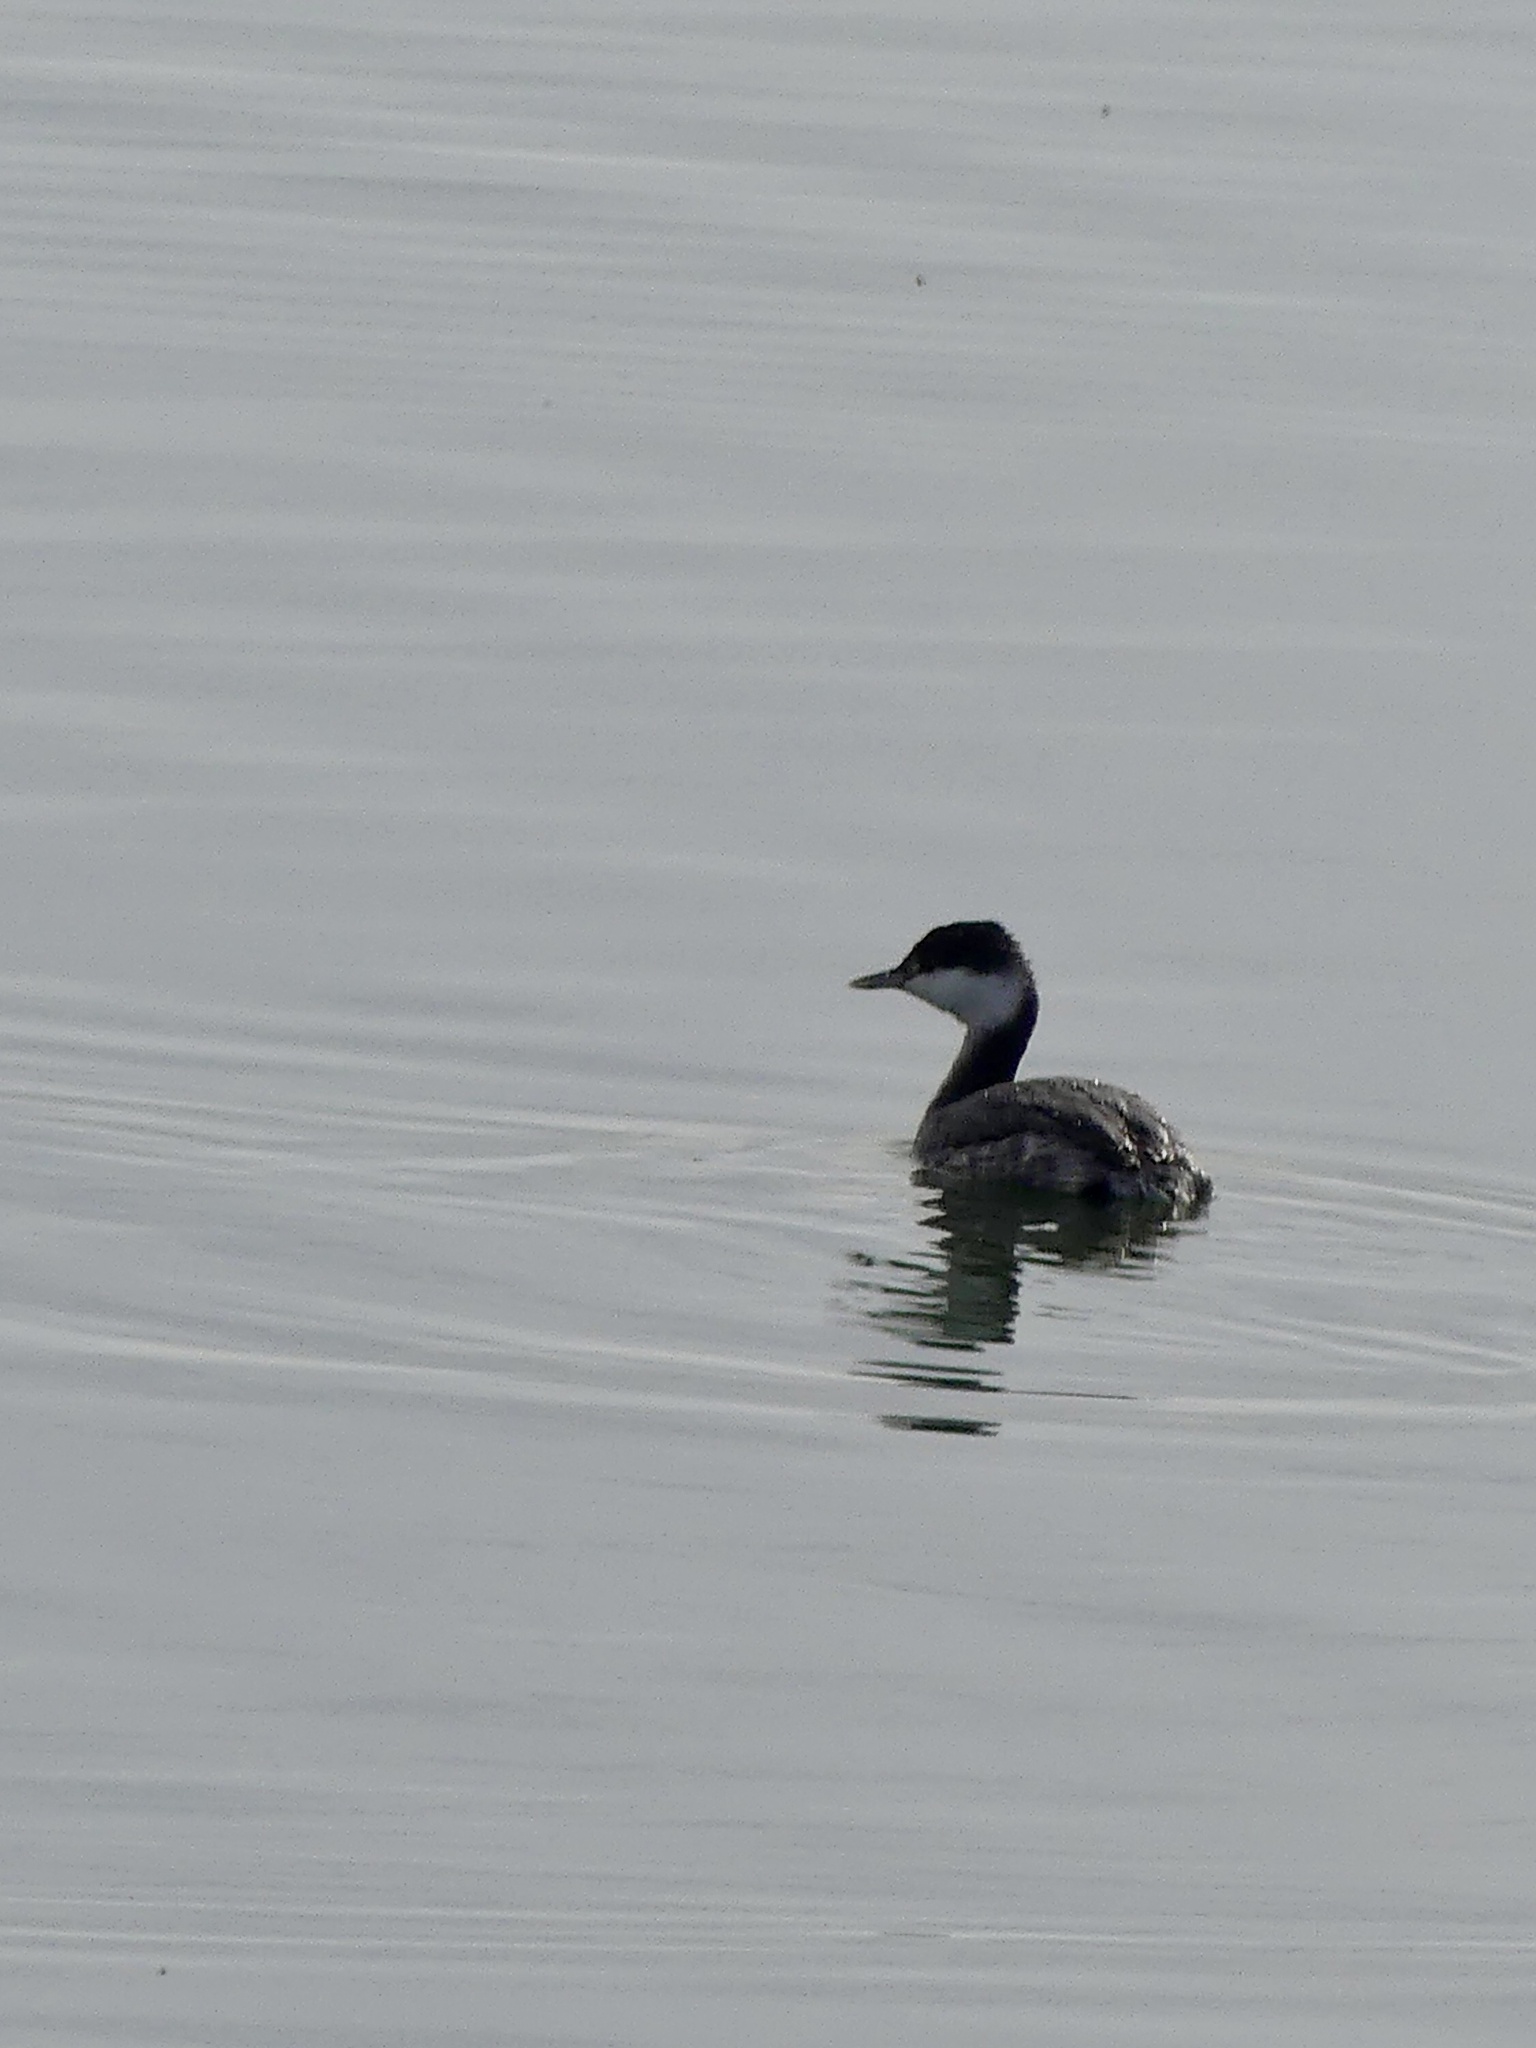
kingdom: Animalia
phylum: Chordata
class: Aves
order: Podicipediformes
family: Podicipedidae
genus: Podiceps
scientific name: Podiceps nigricollis
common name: Black-necked grebe
